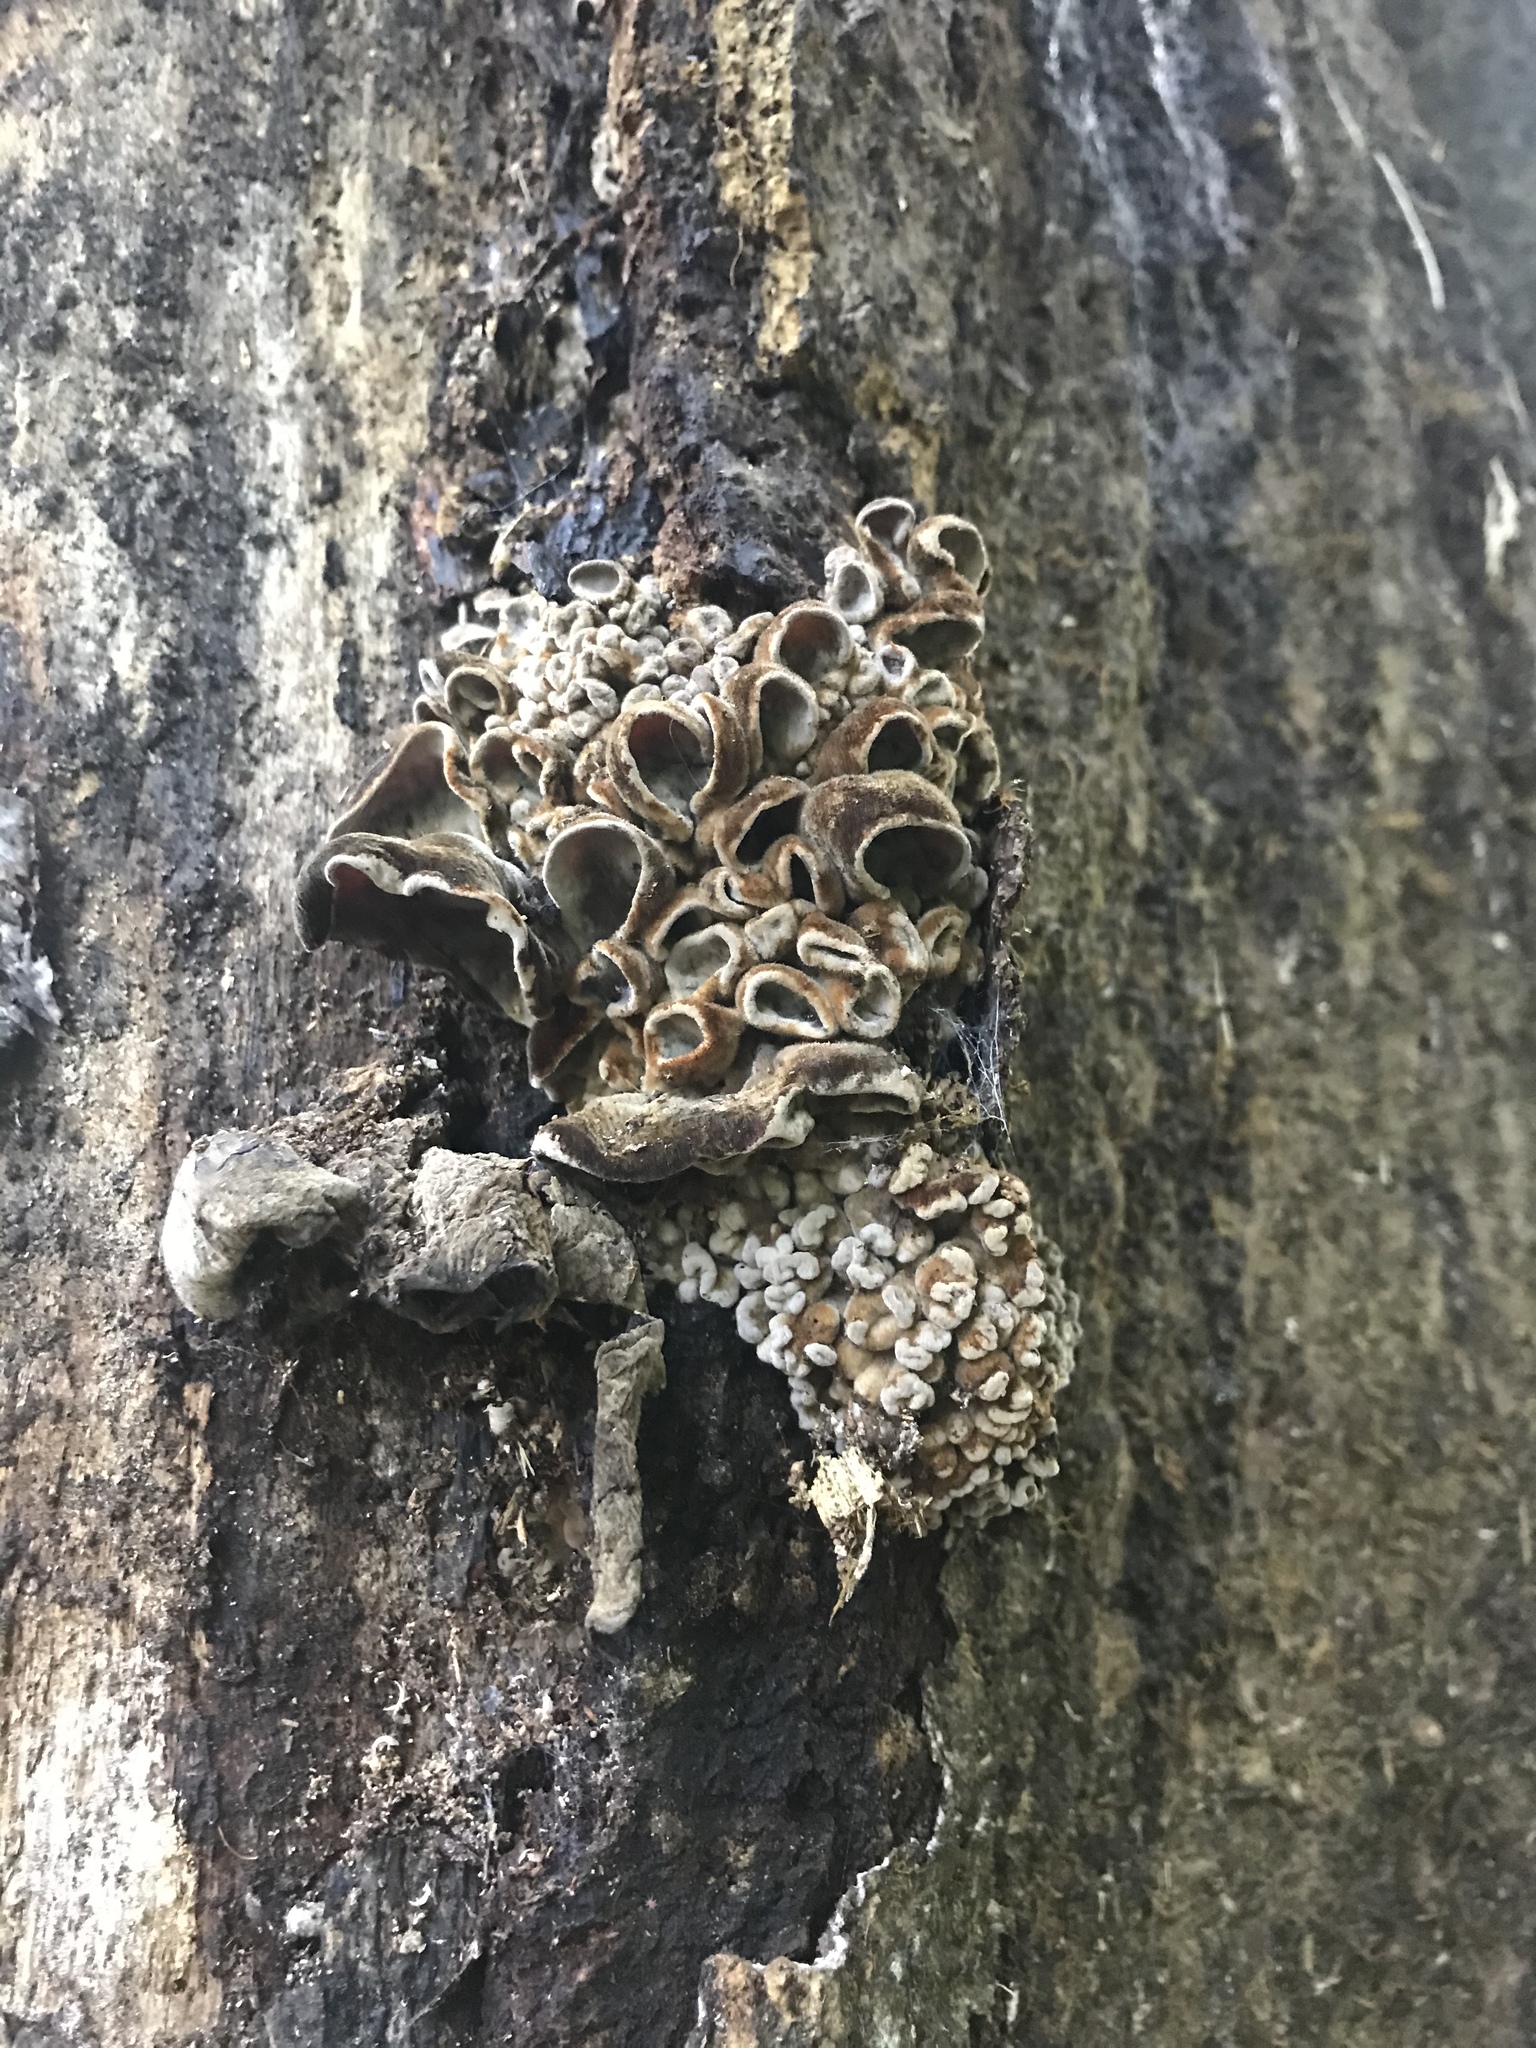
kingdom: Fungi
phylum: Basidiomycota
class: Agaricomycetes
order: Auriculariales
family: Auriculariaceae
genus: Auricularia
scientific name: Auricularia cornea
